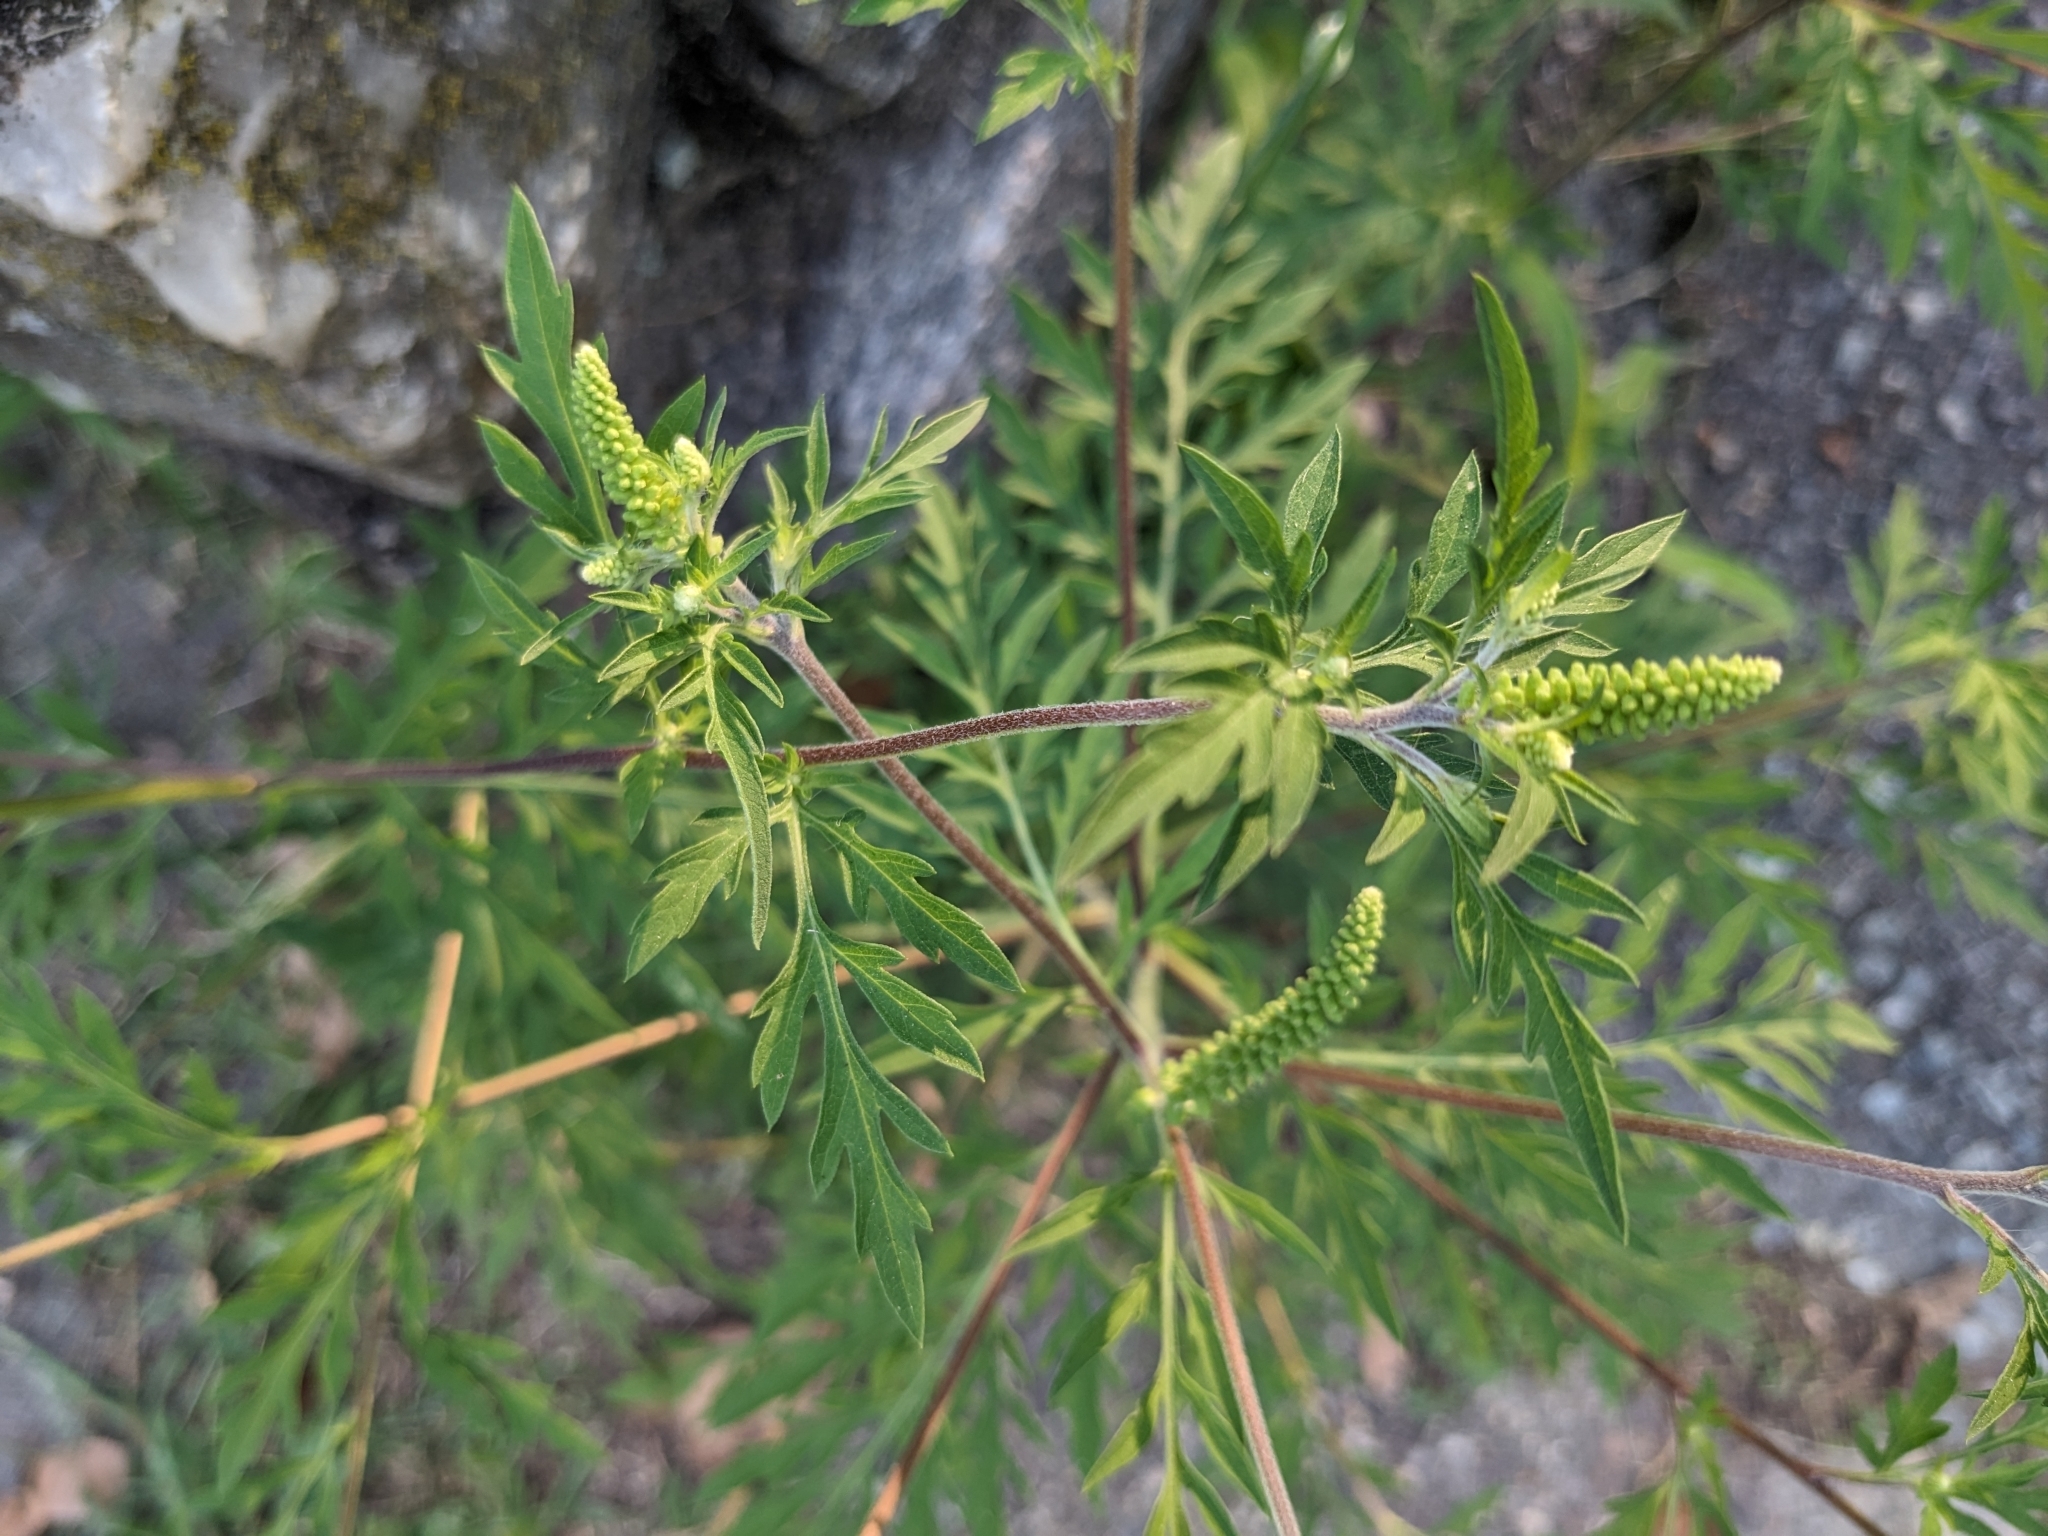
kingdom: Plantae
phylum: Tracheophyta
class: Magnoliopsida
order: Asterales
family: Asteraceae
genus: Ambrosia
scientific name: Ambrosia artemisiifolia
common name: Annual ragweed
